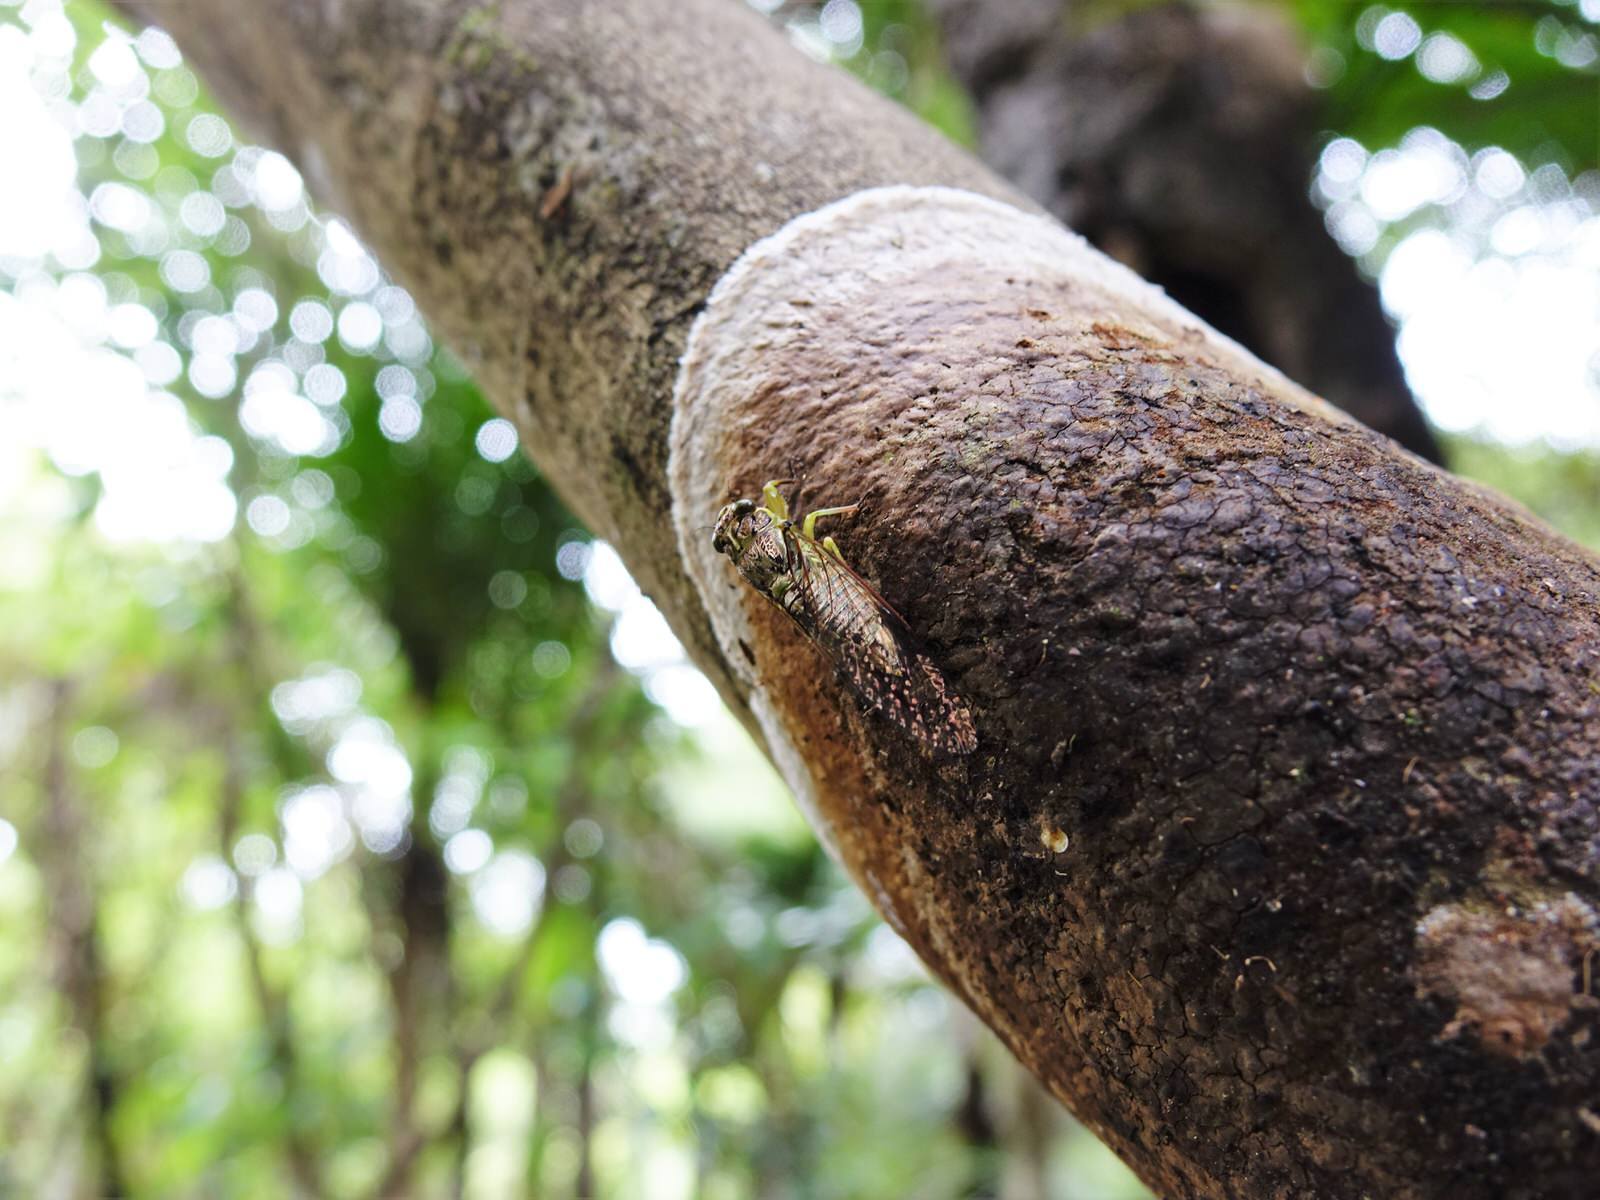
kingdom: Animalia
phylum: Arthropoda
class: Insecta
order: Hemiptera
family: Cicadidae
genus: Kikihia
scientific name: Kikihia scutellaris
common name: Lesser bronze cicada
